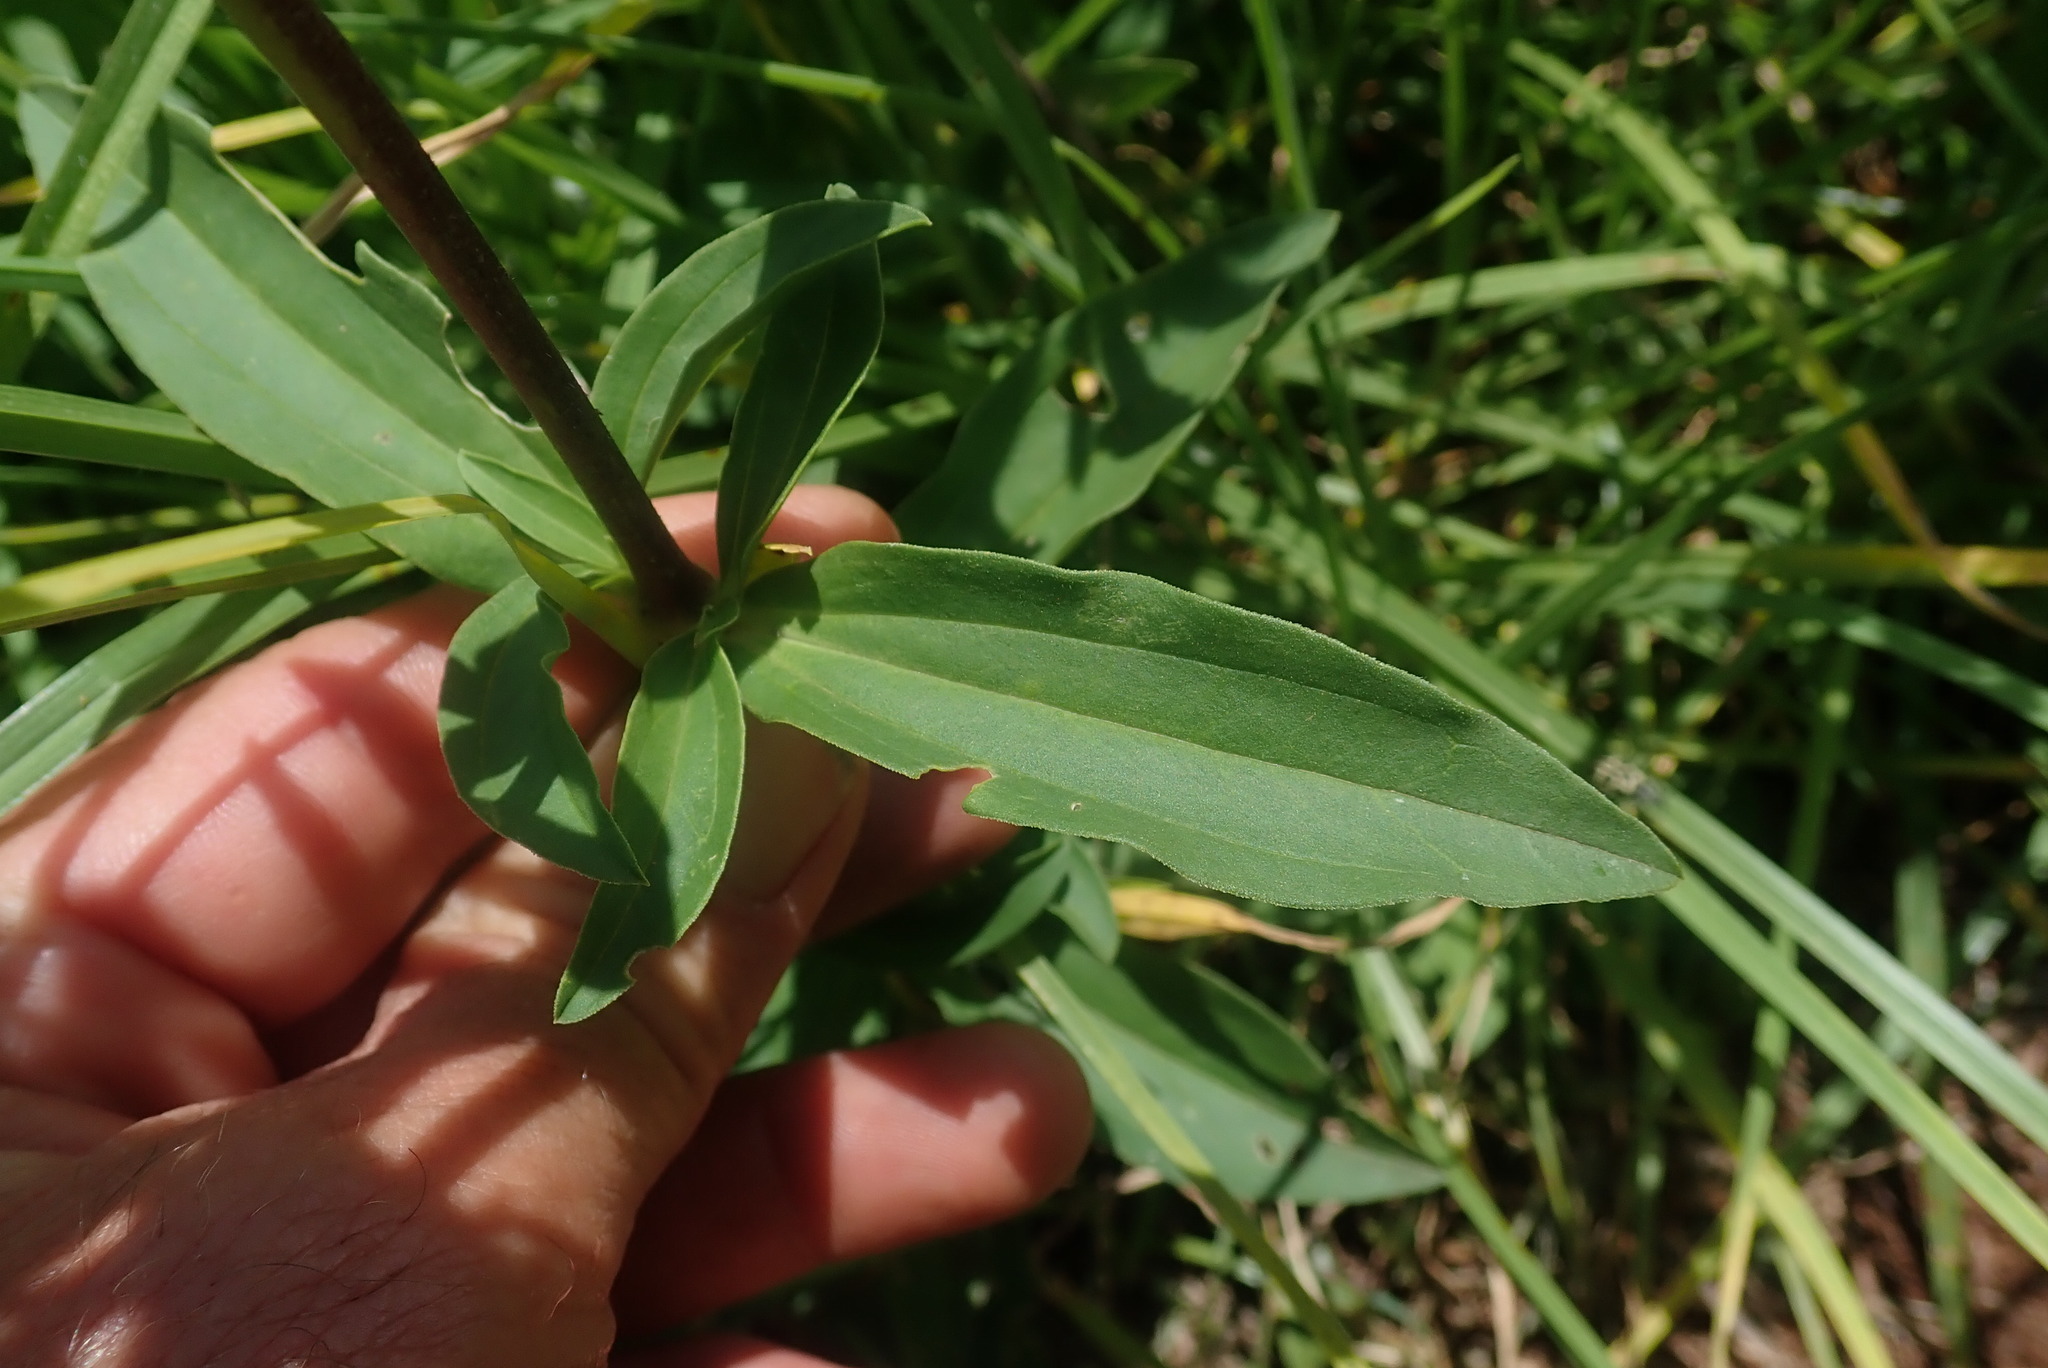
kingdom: Plantae
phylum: Tracheophyta
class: Magnoliopsida
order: Caryophyllales
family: Caryophyllaceae
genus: Saponaria
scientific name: Saponaria officinalis
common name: Soapwort
